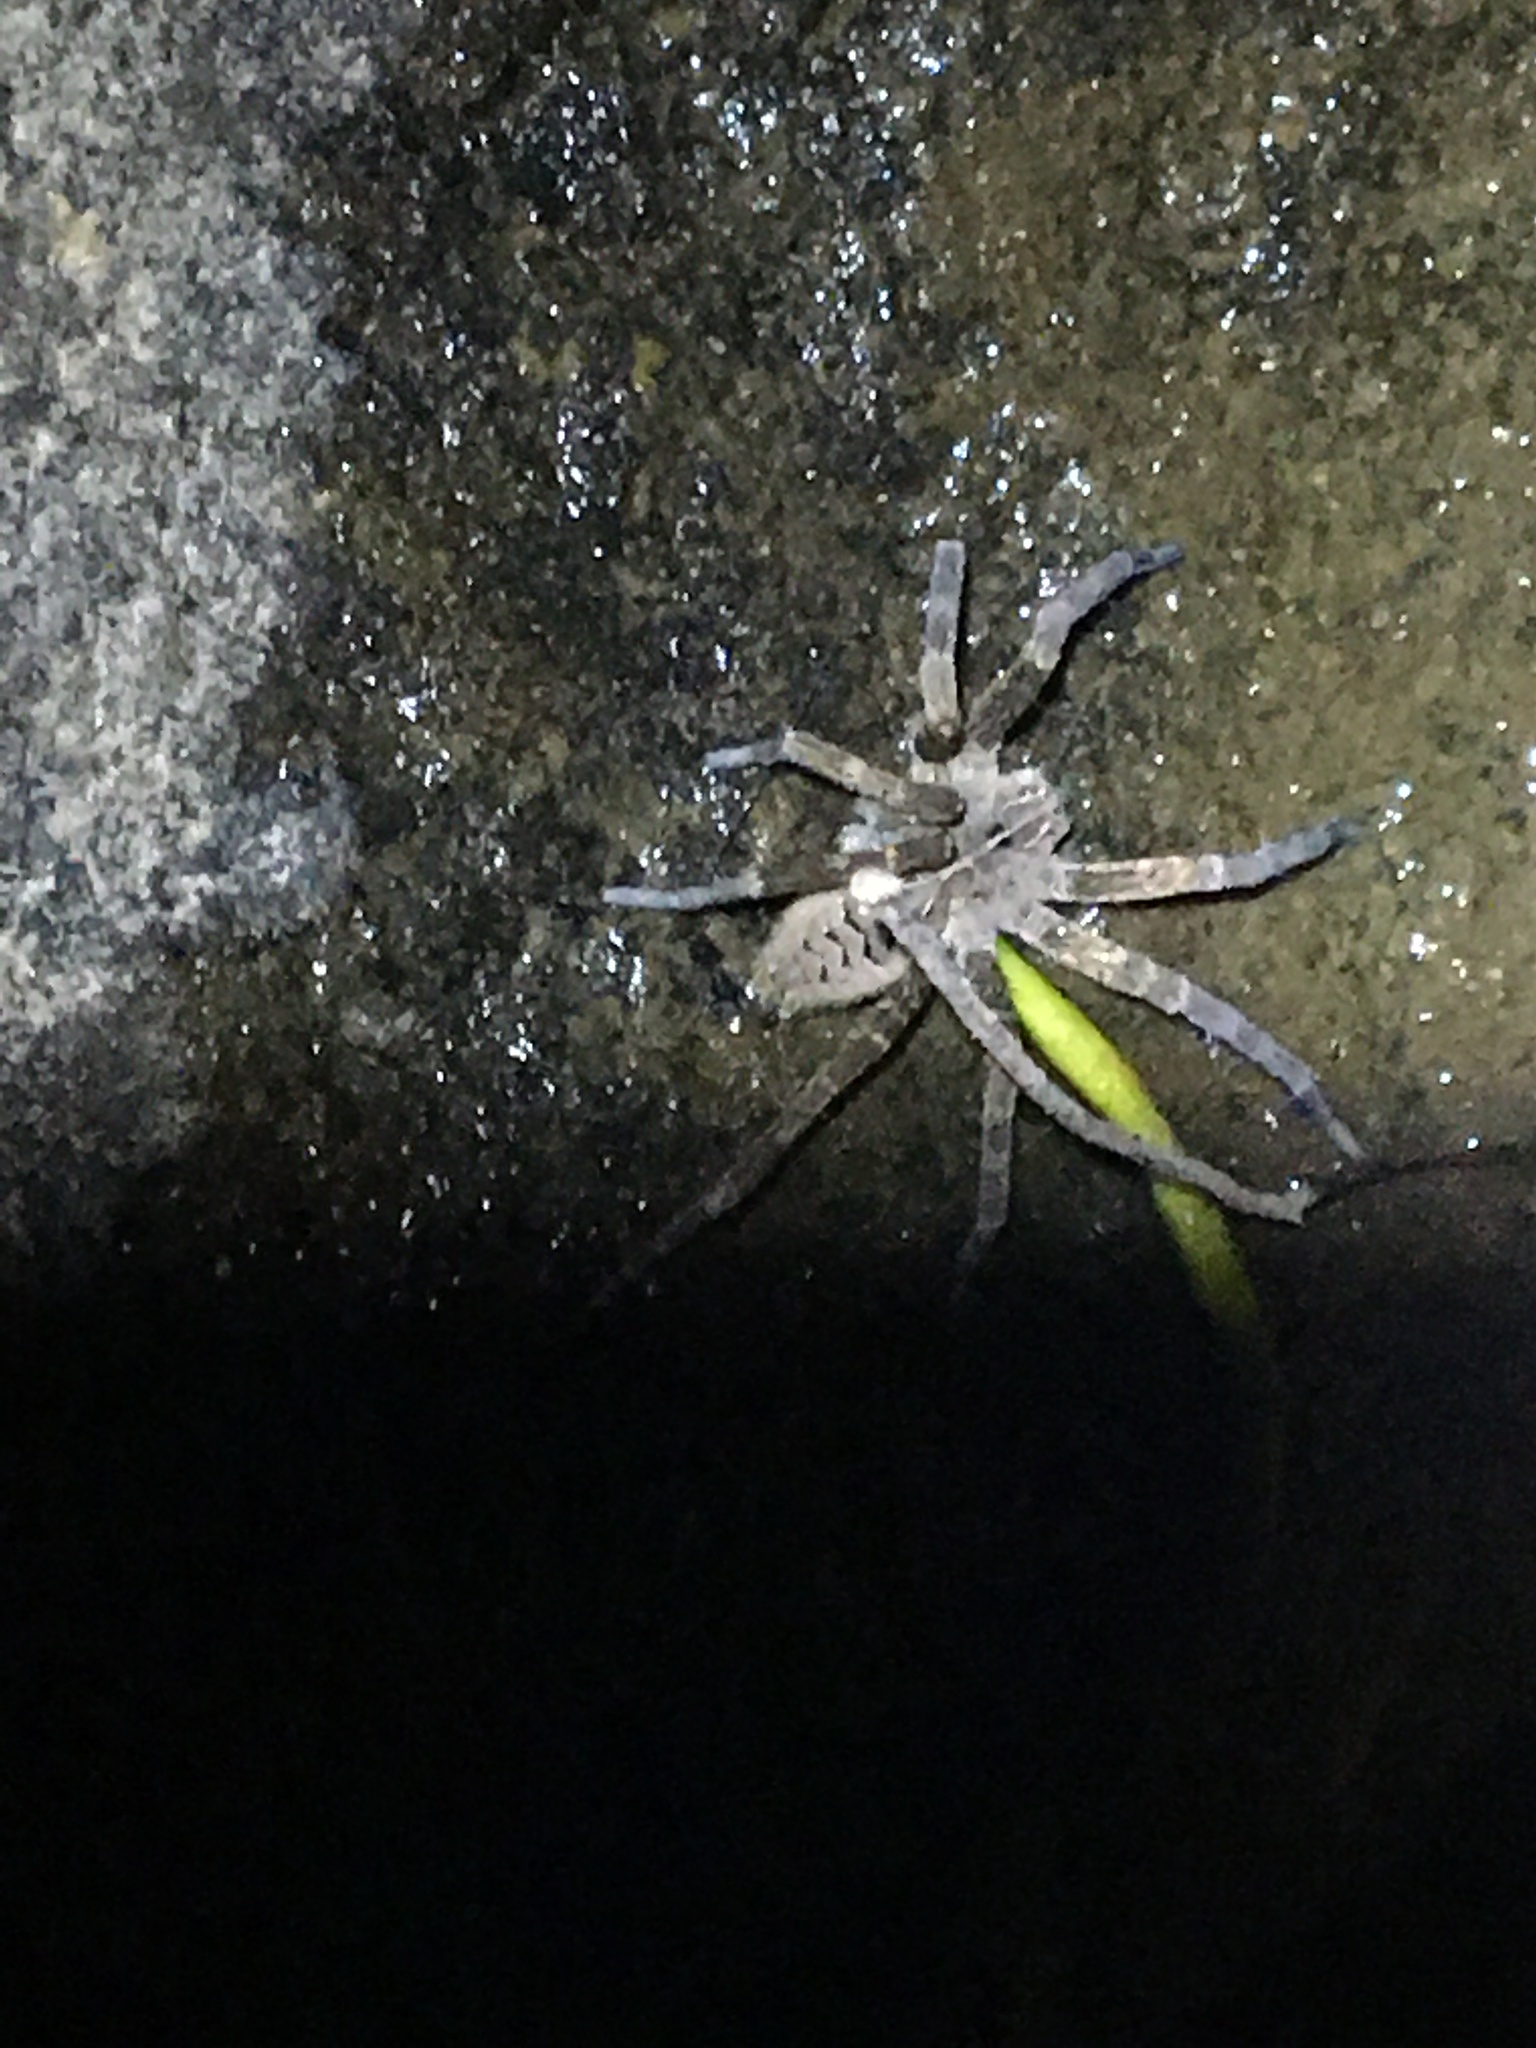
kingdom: Animalia
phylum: Arthropoda
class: Arachnida
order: Araneae
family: Pisauridae
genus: Dolomedes
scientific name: Dolomedes scriptus
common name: Striped fishing spider
